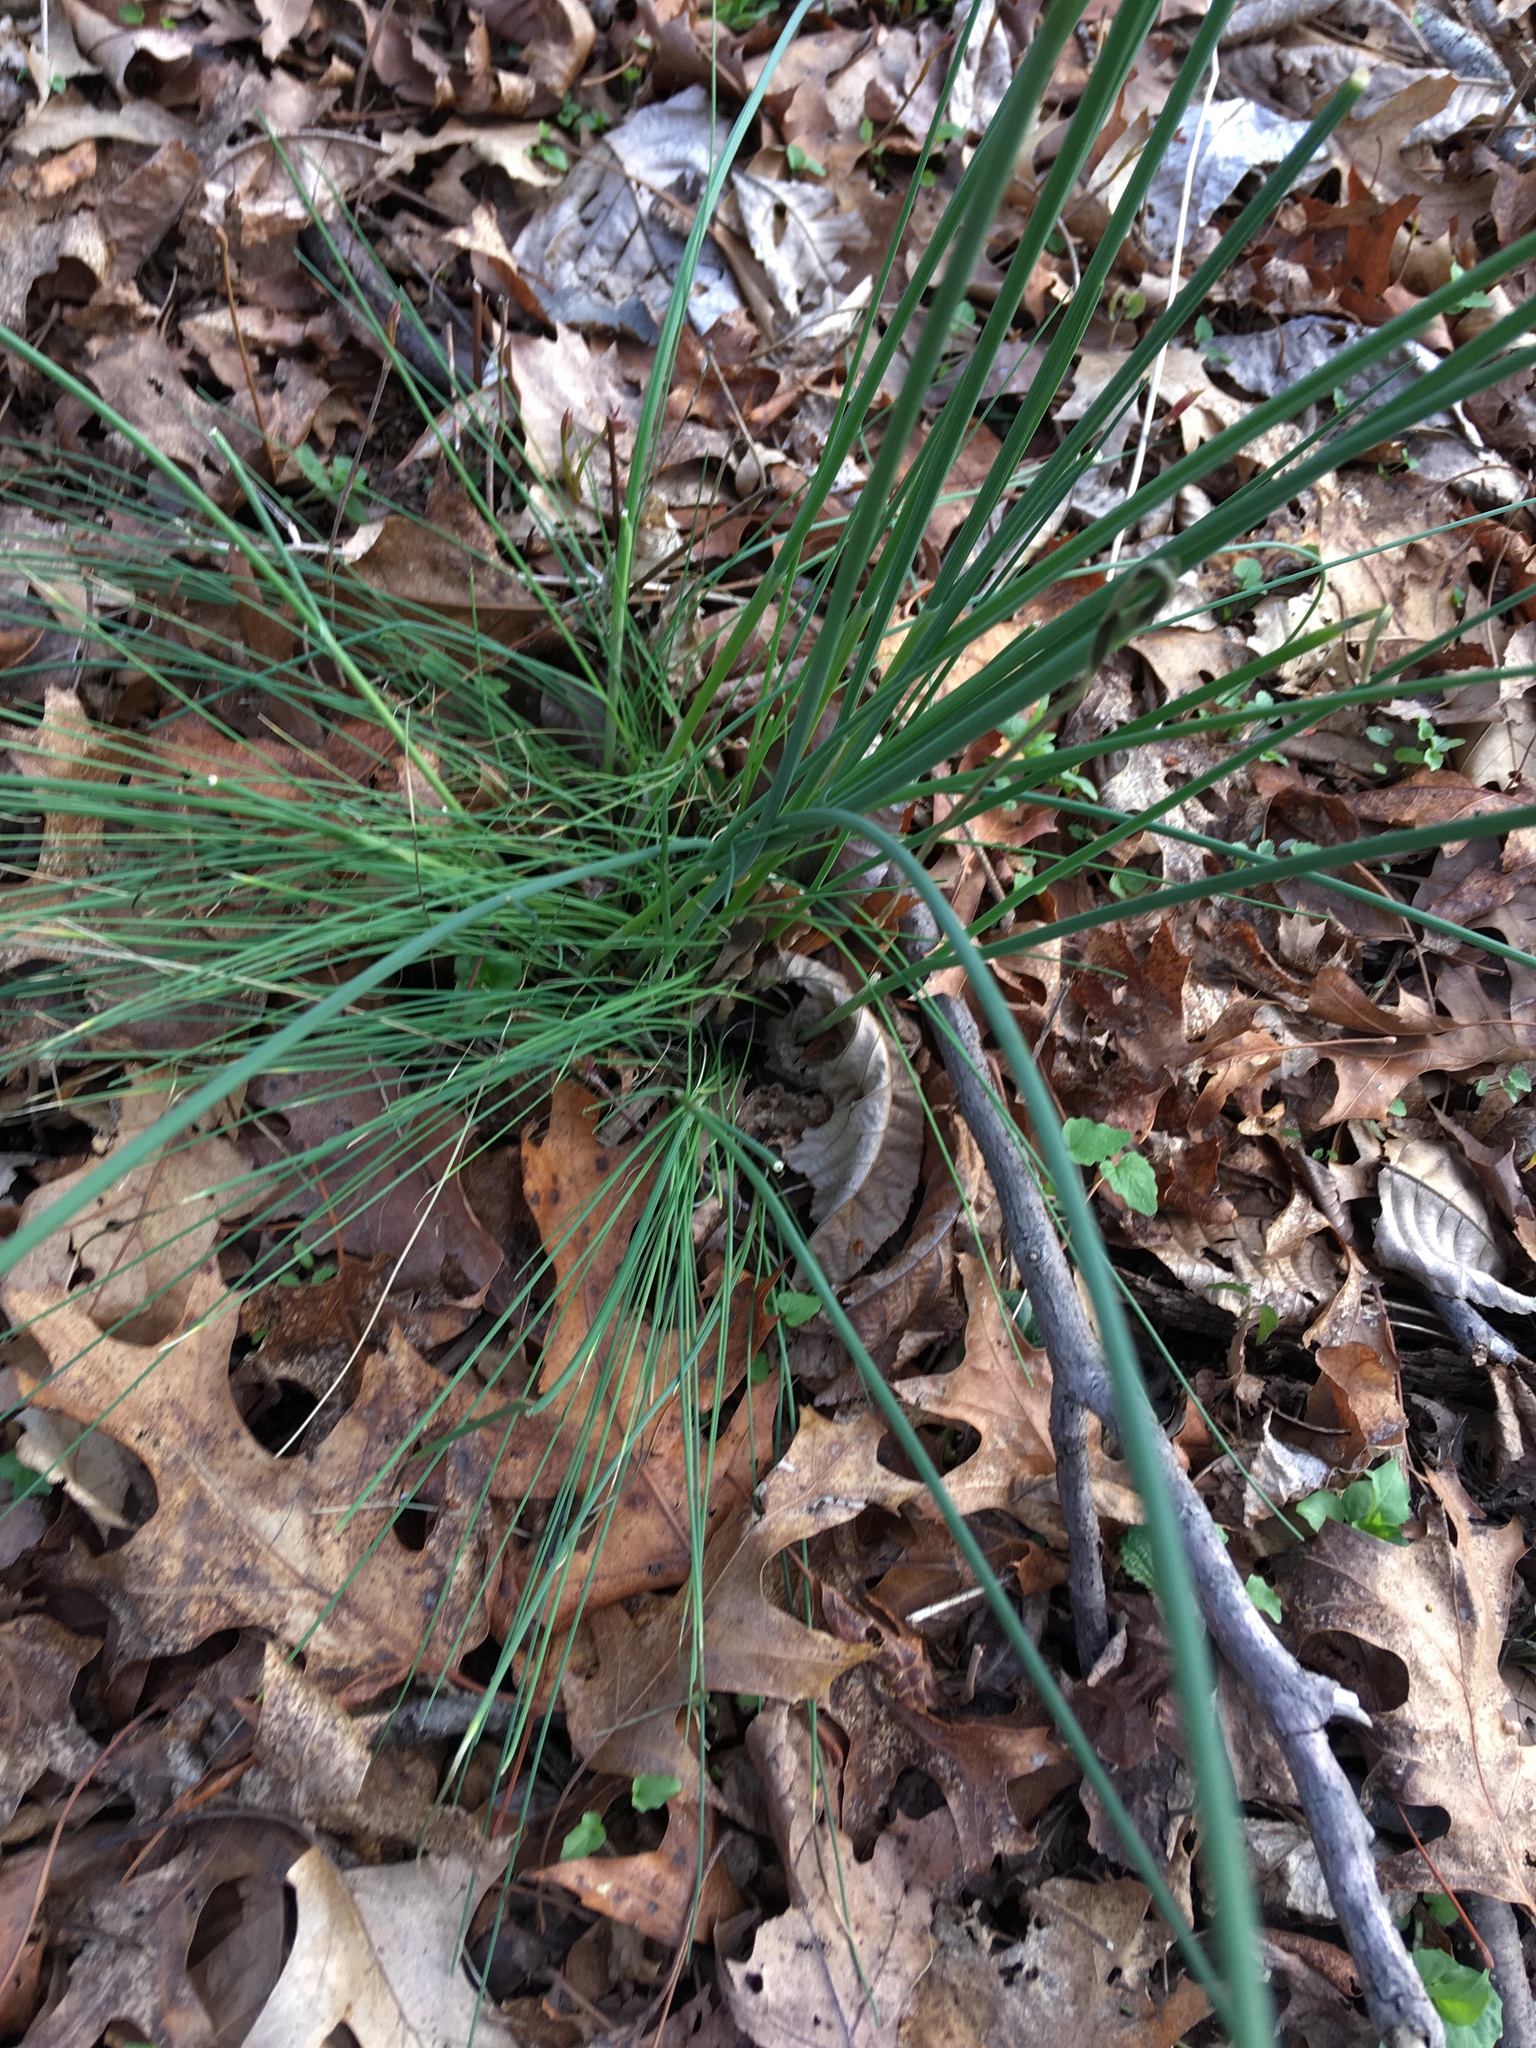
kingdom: Plantae
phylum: Tracheophyta
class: Liliopsida
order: Asparagales
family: Amaryllidaceae
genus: Allium
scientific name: Allium vineale
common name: Crow garlic
